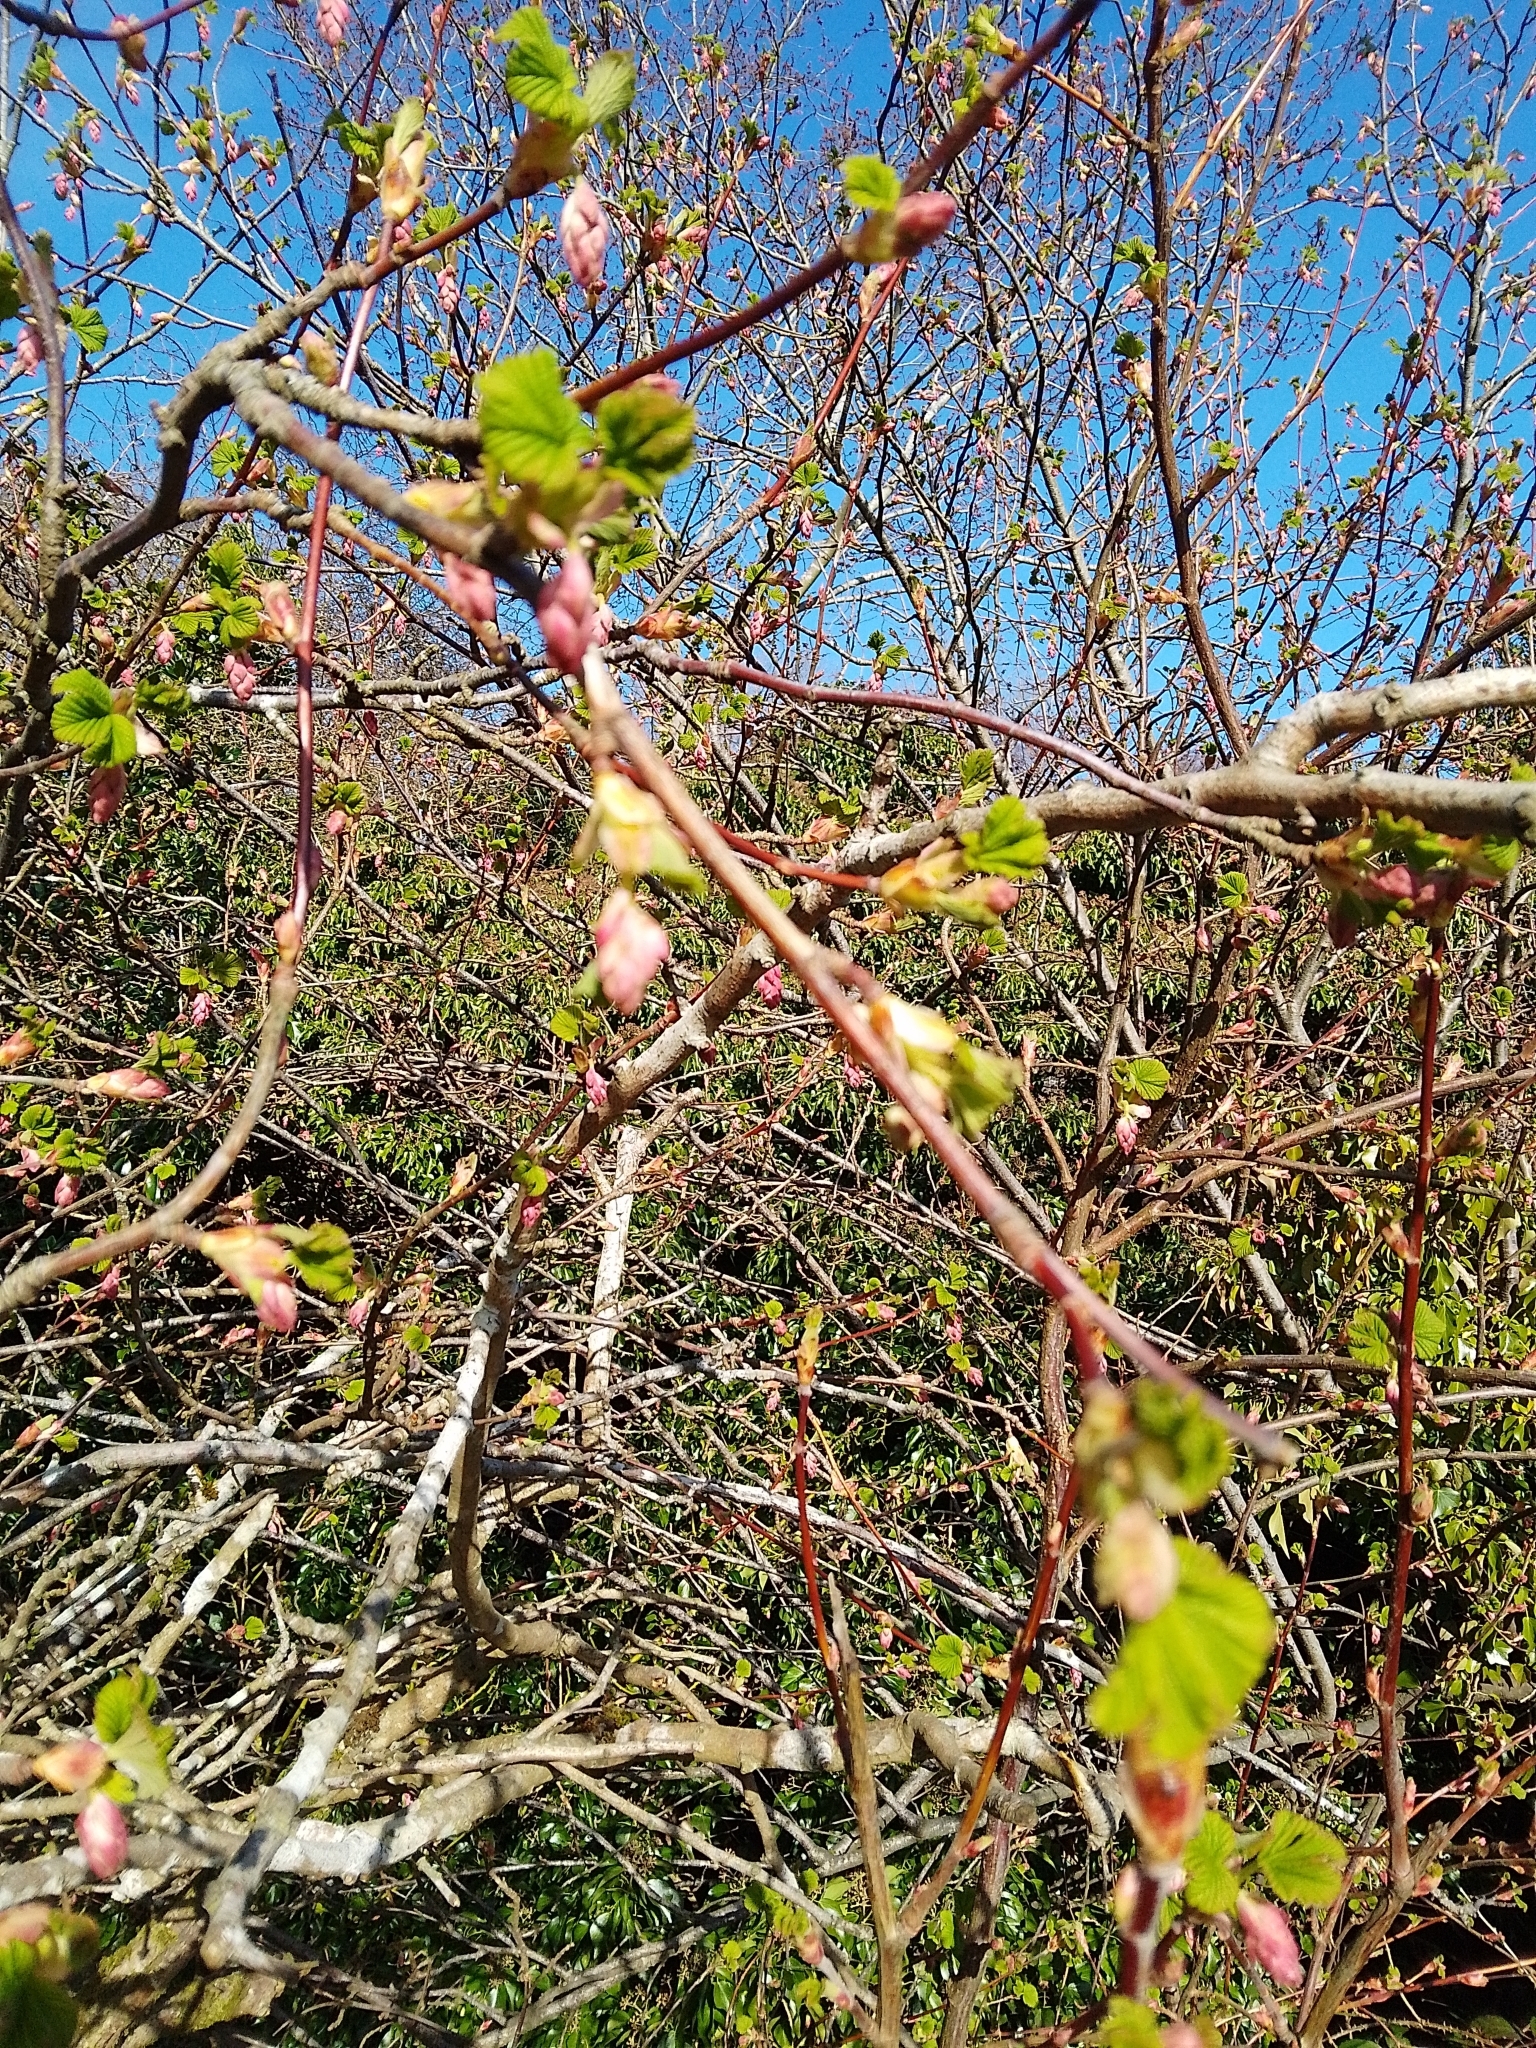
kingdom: Plantae
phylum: Tracheophyta
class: Magnoliopsida
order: Saxifragales
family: Grossulariaceae
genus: Ribes
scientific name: Ribes sanguineum
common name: Flowering currant
